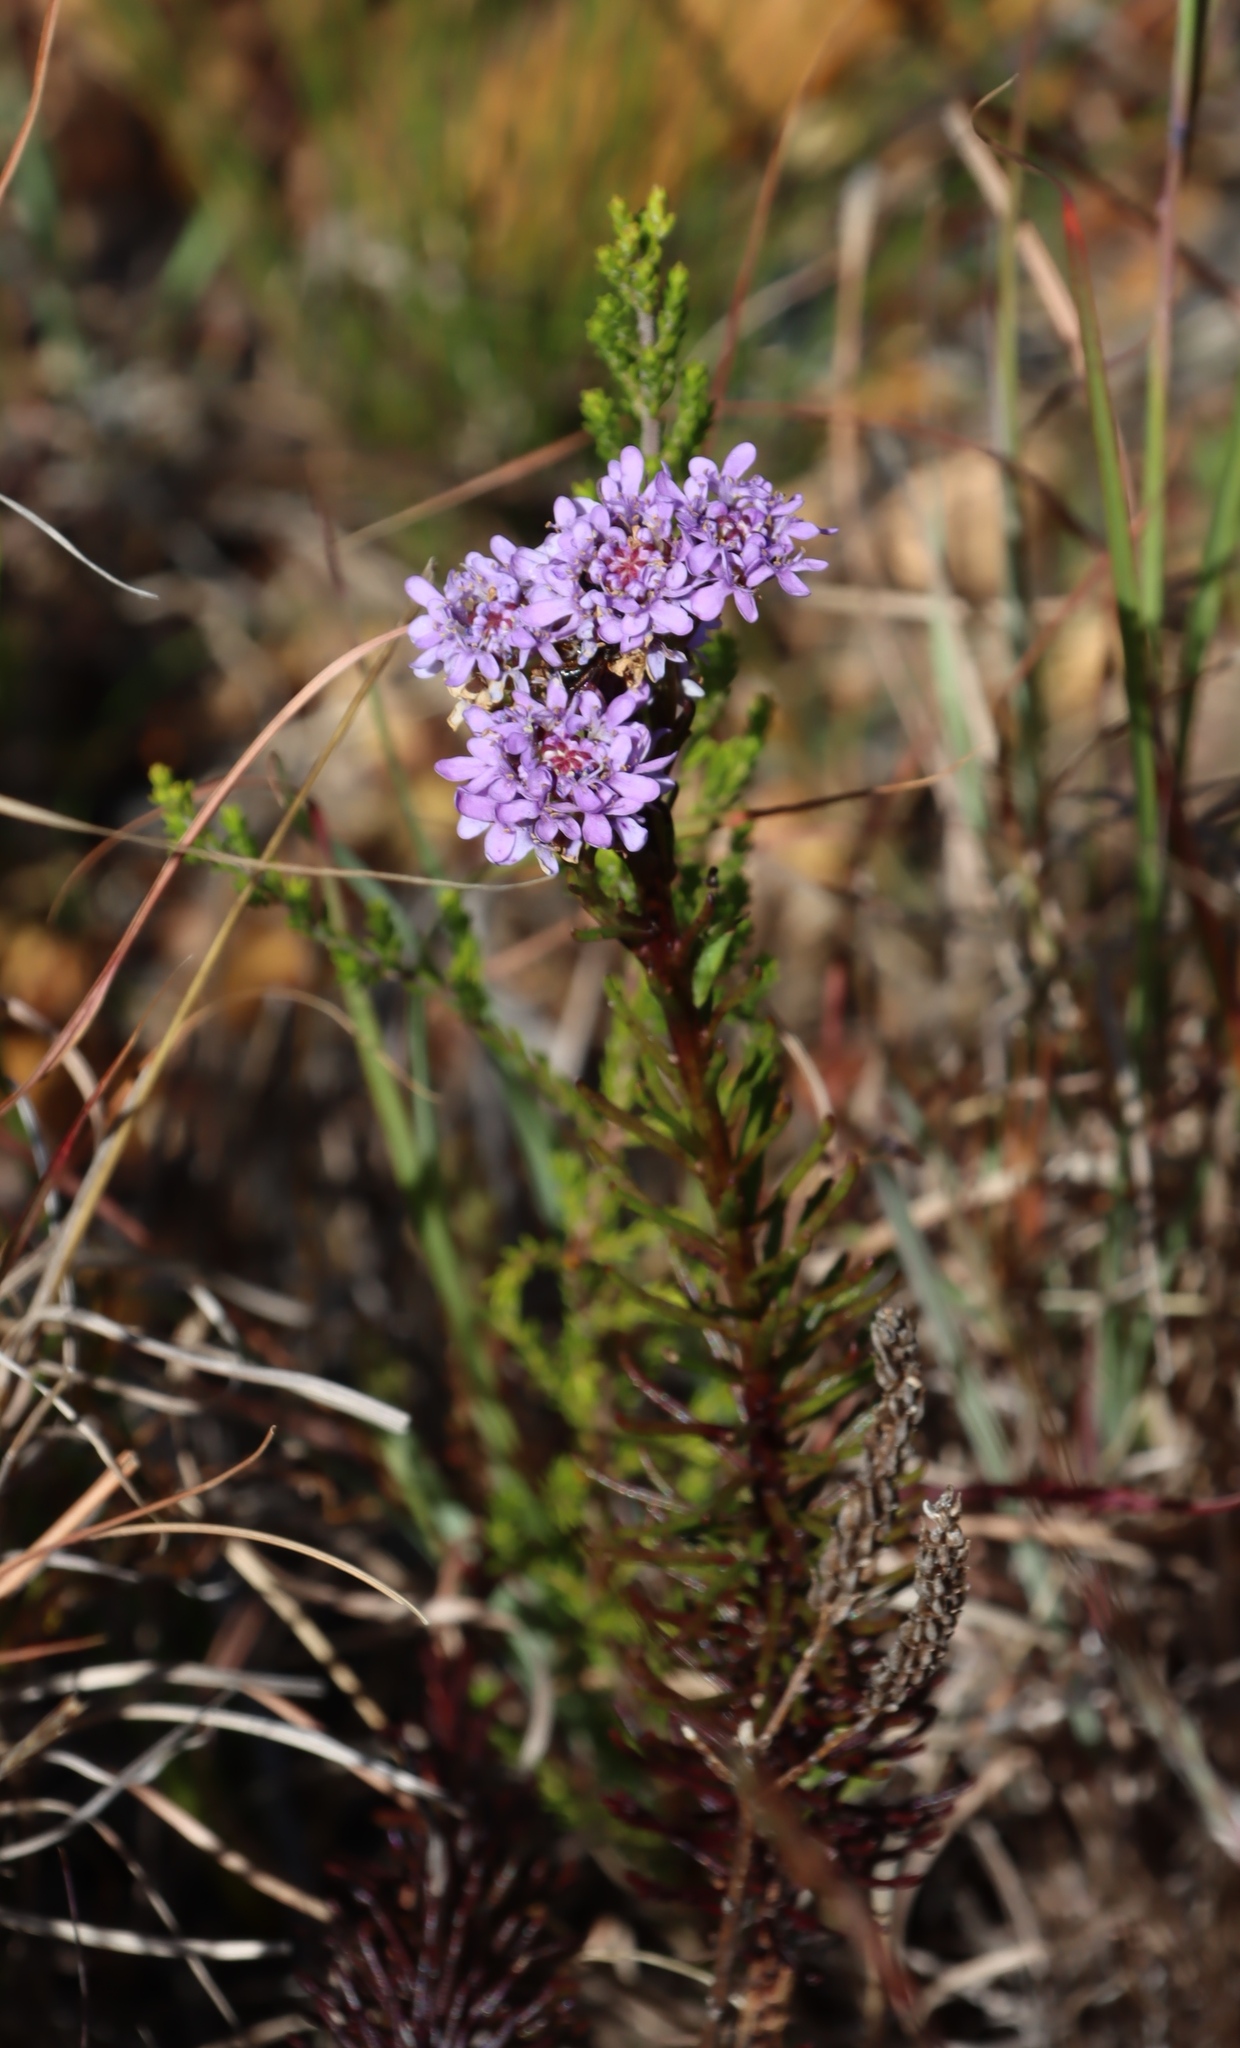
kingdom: Plantae
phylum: Tracheophyta
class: Magnoliopsida
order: Lamiales
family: Scrophulariaceae
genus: Pseudoselago
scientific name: Pseudoselago spuria
